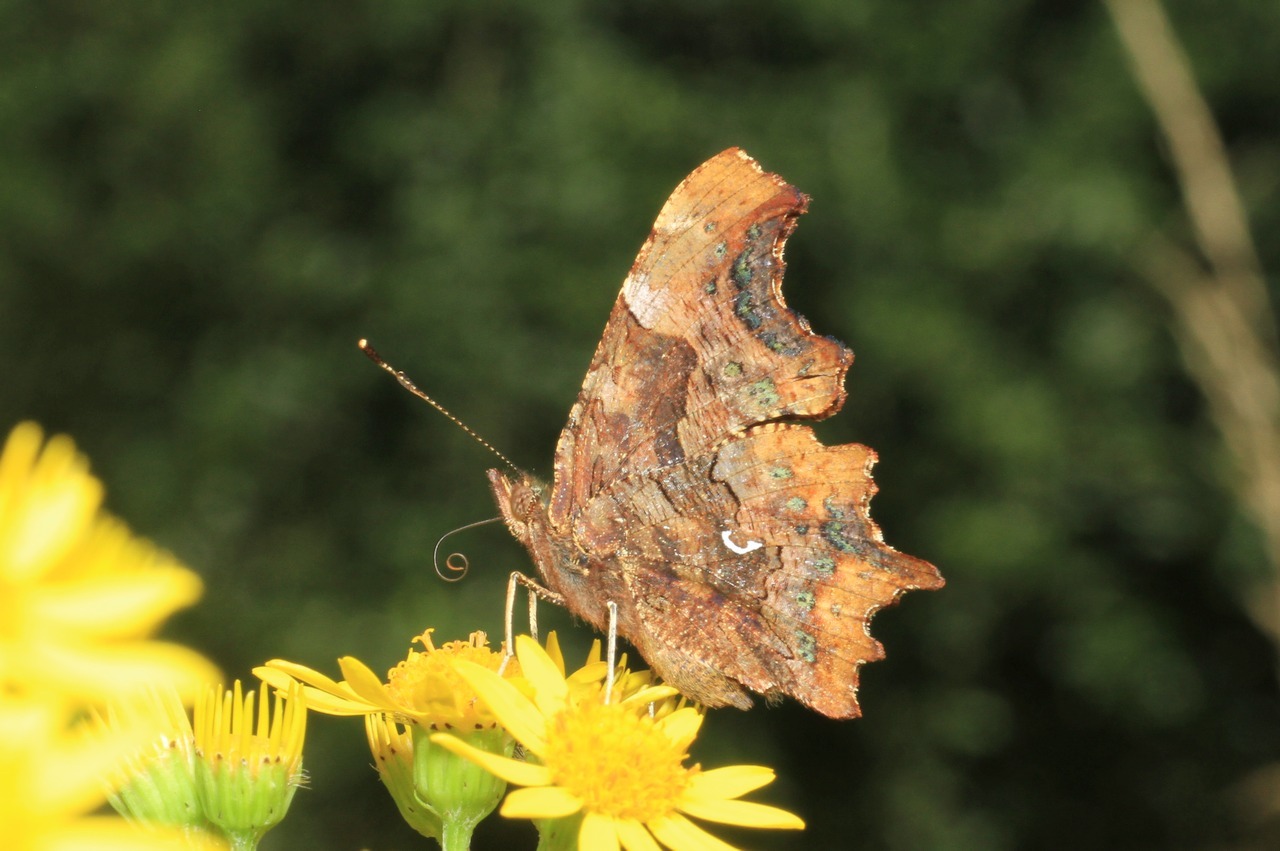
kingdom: Animalia
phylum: Arthropoda
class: Insecta
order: Lepidoptera
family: Nymphalidae
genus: Polygonia
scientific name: Polygonia c-album
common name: Comma
